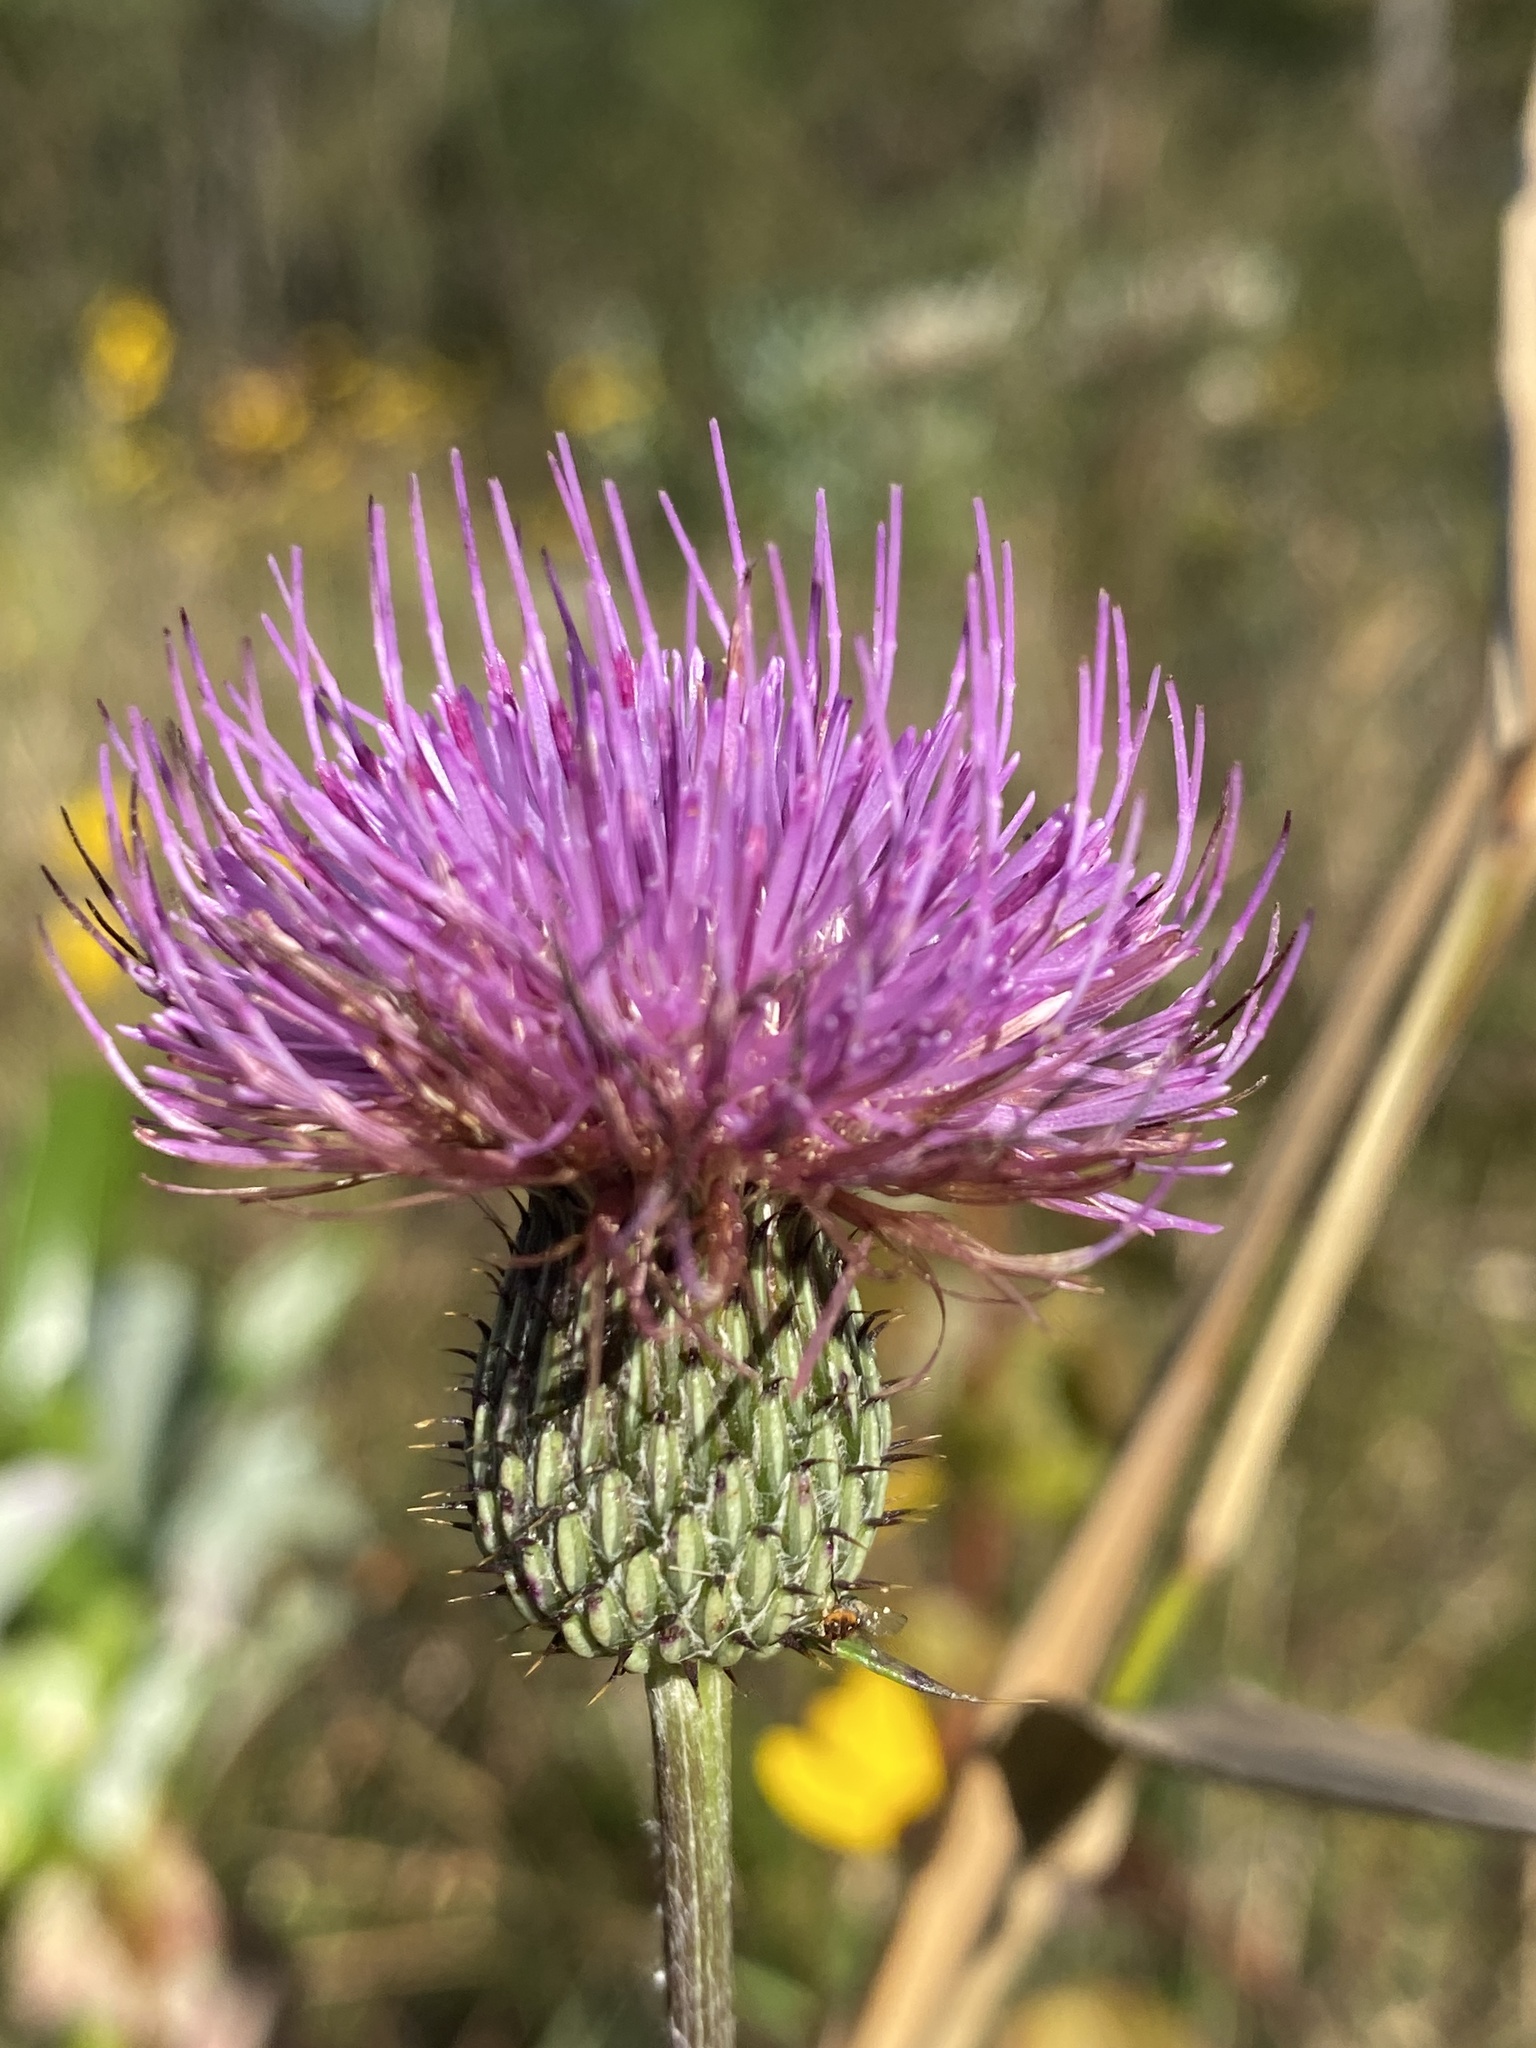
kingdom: Plantae
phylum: Tracheophyta
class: Magnoliopsida
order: Asterales
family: Asteraceae
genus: Cirsium
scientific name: Cirsium virginianum
